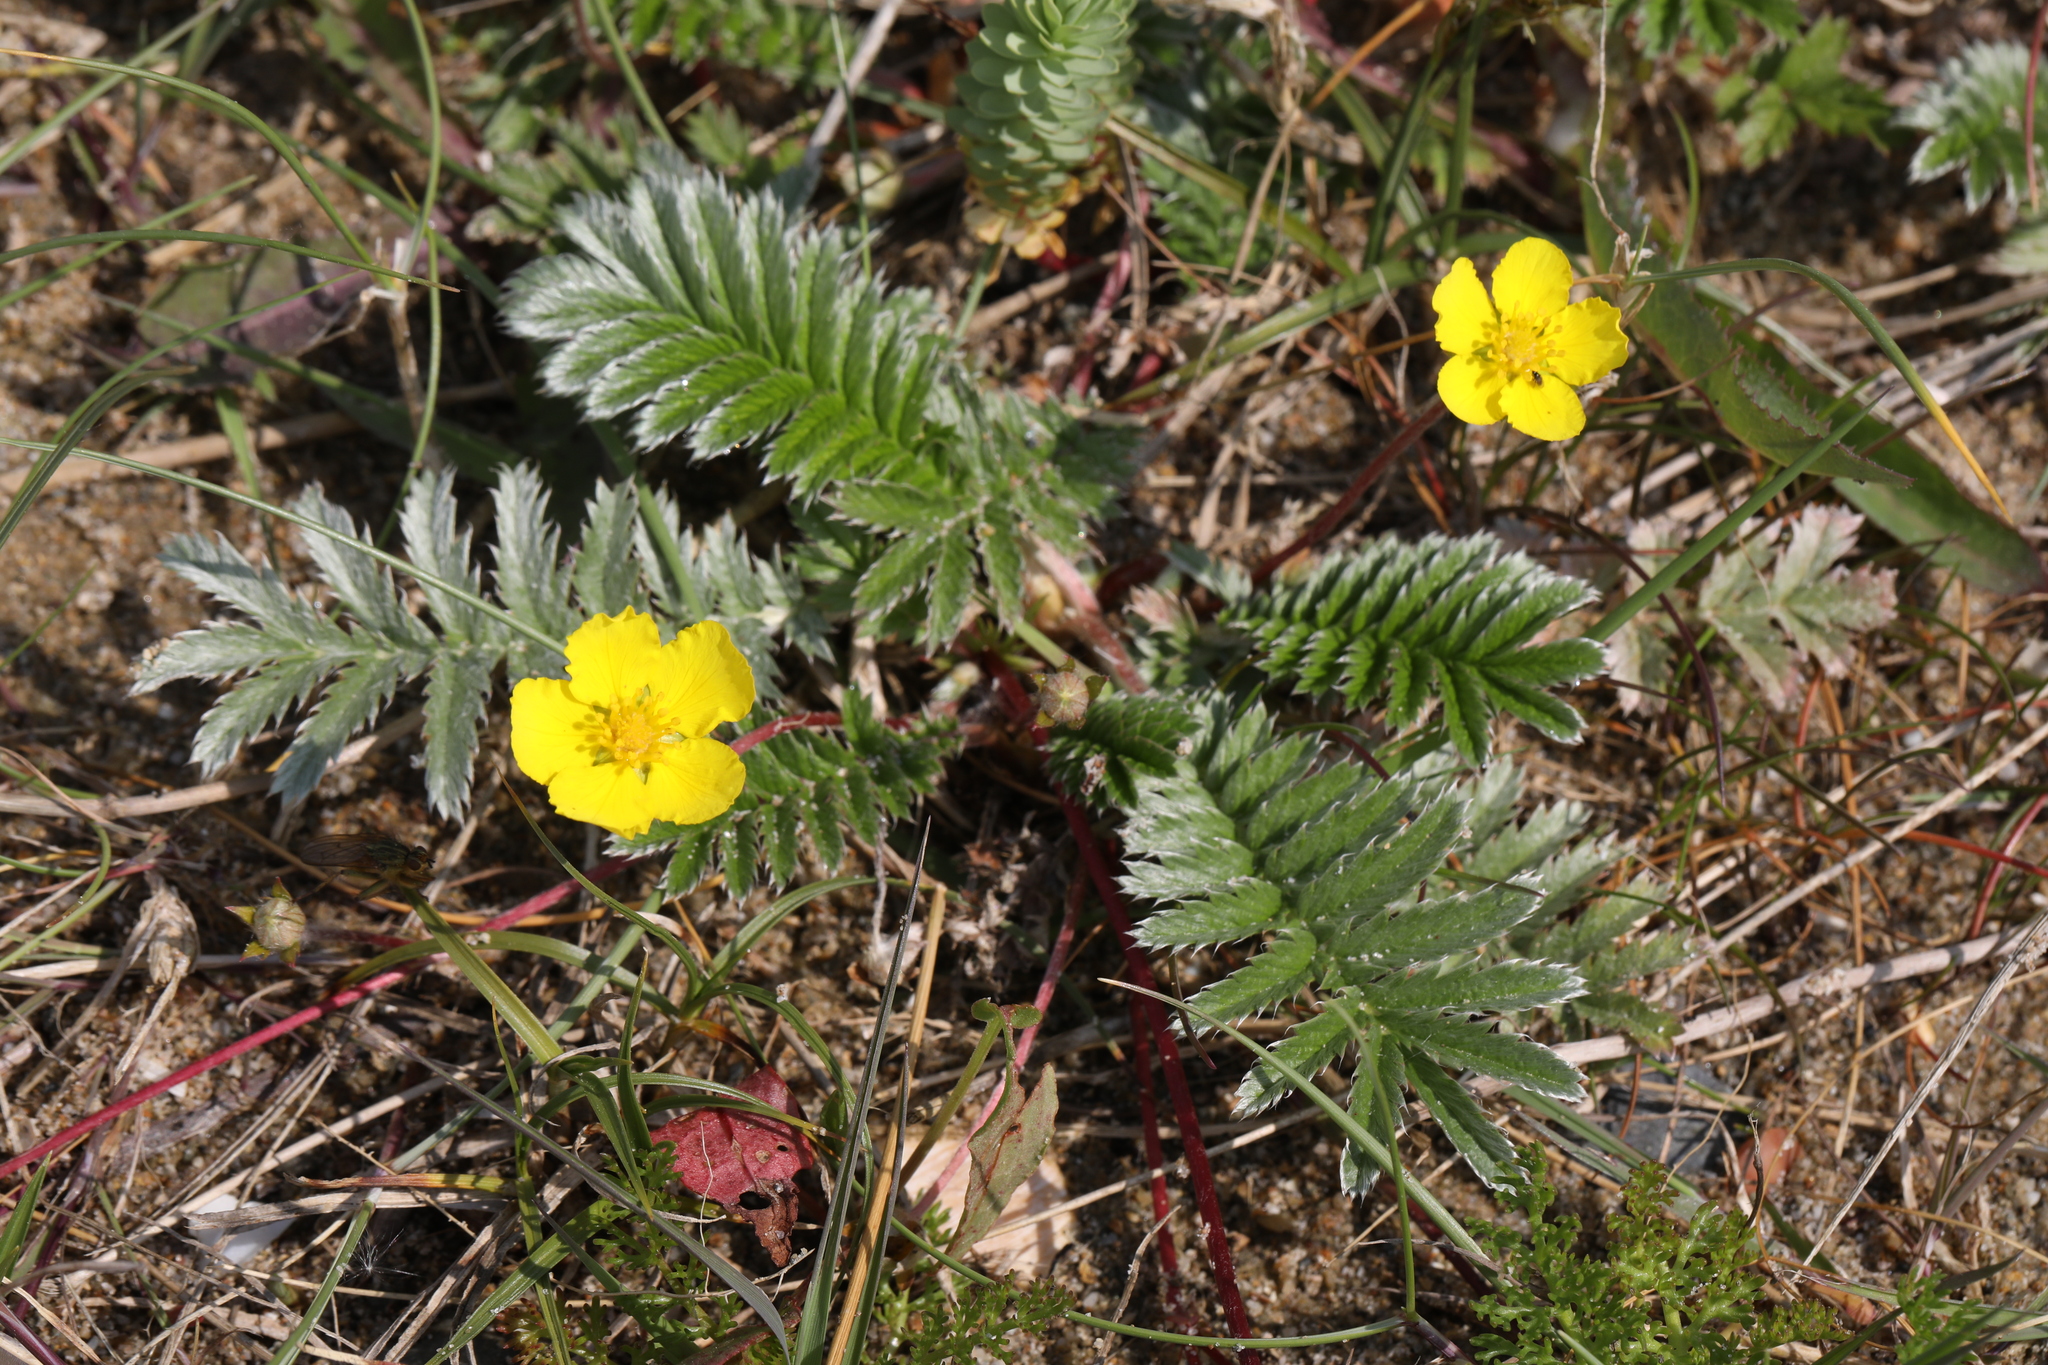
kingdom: Plantae
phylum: Tracheophyta
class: Magnoliopsida
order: Rosales
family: Rosaceae
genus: Argentina
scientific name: Argentina anserina
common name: Common silverweed
